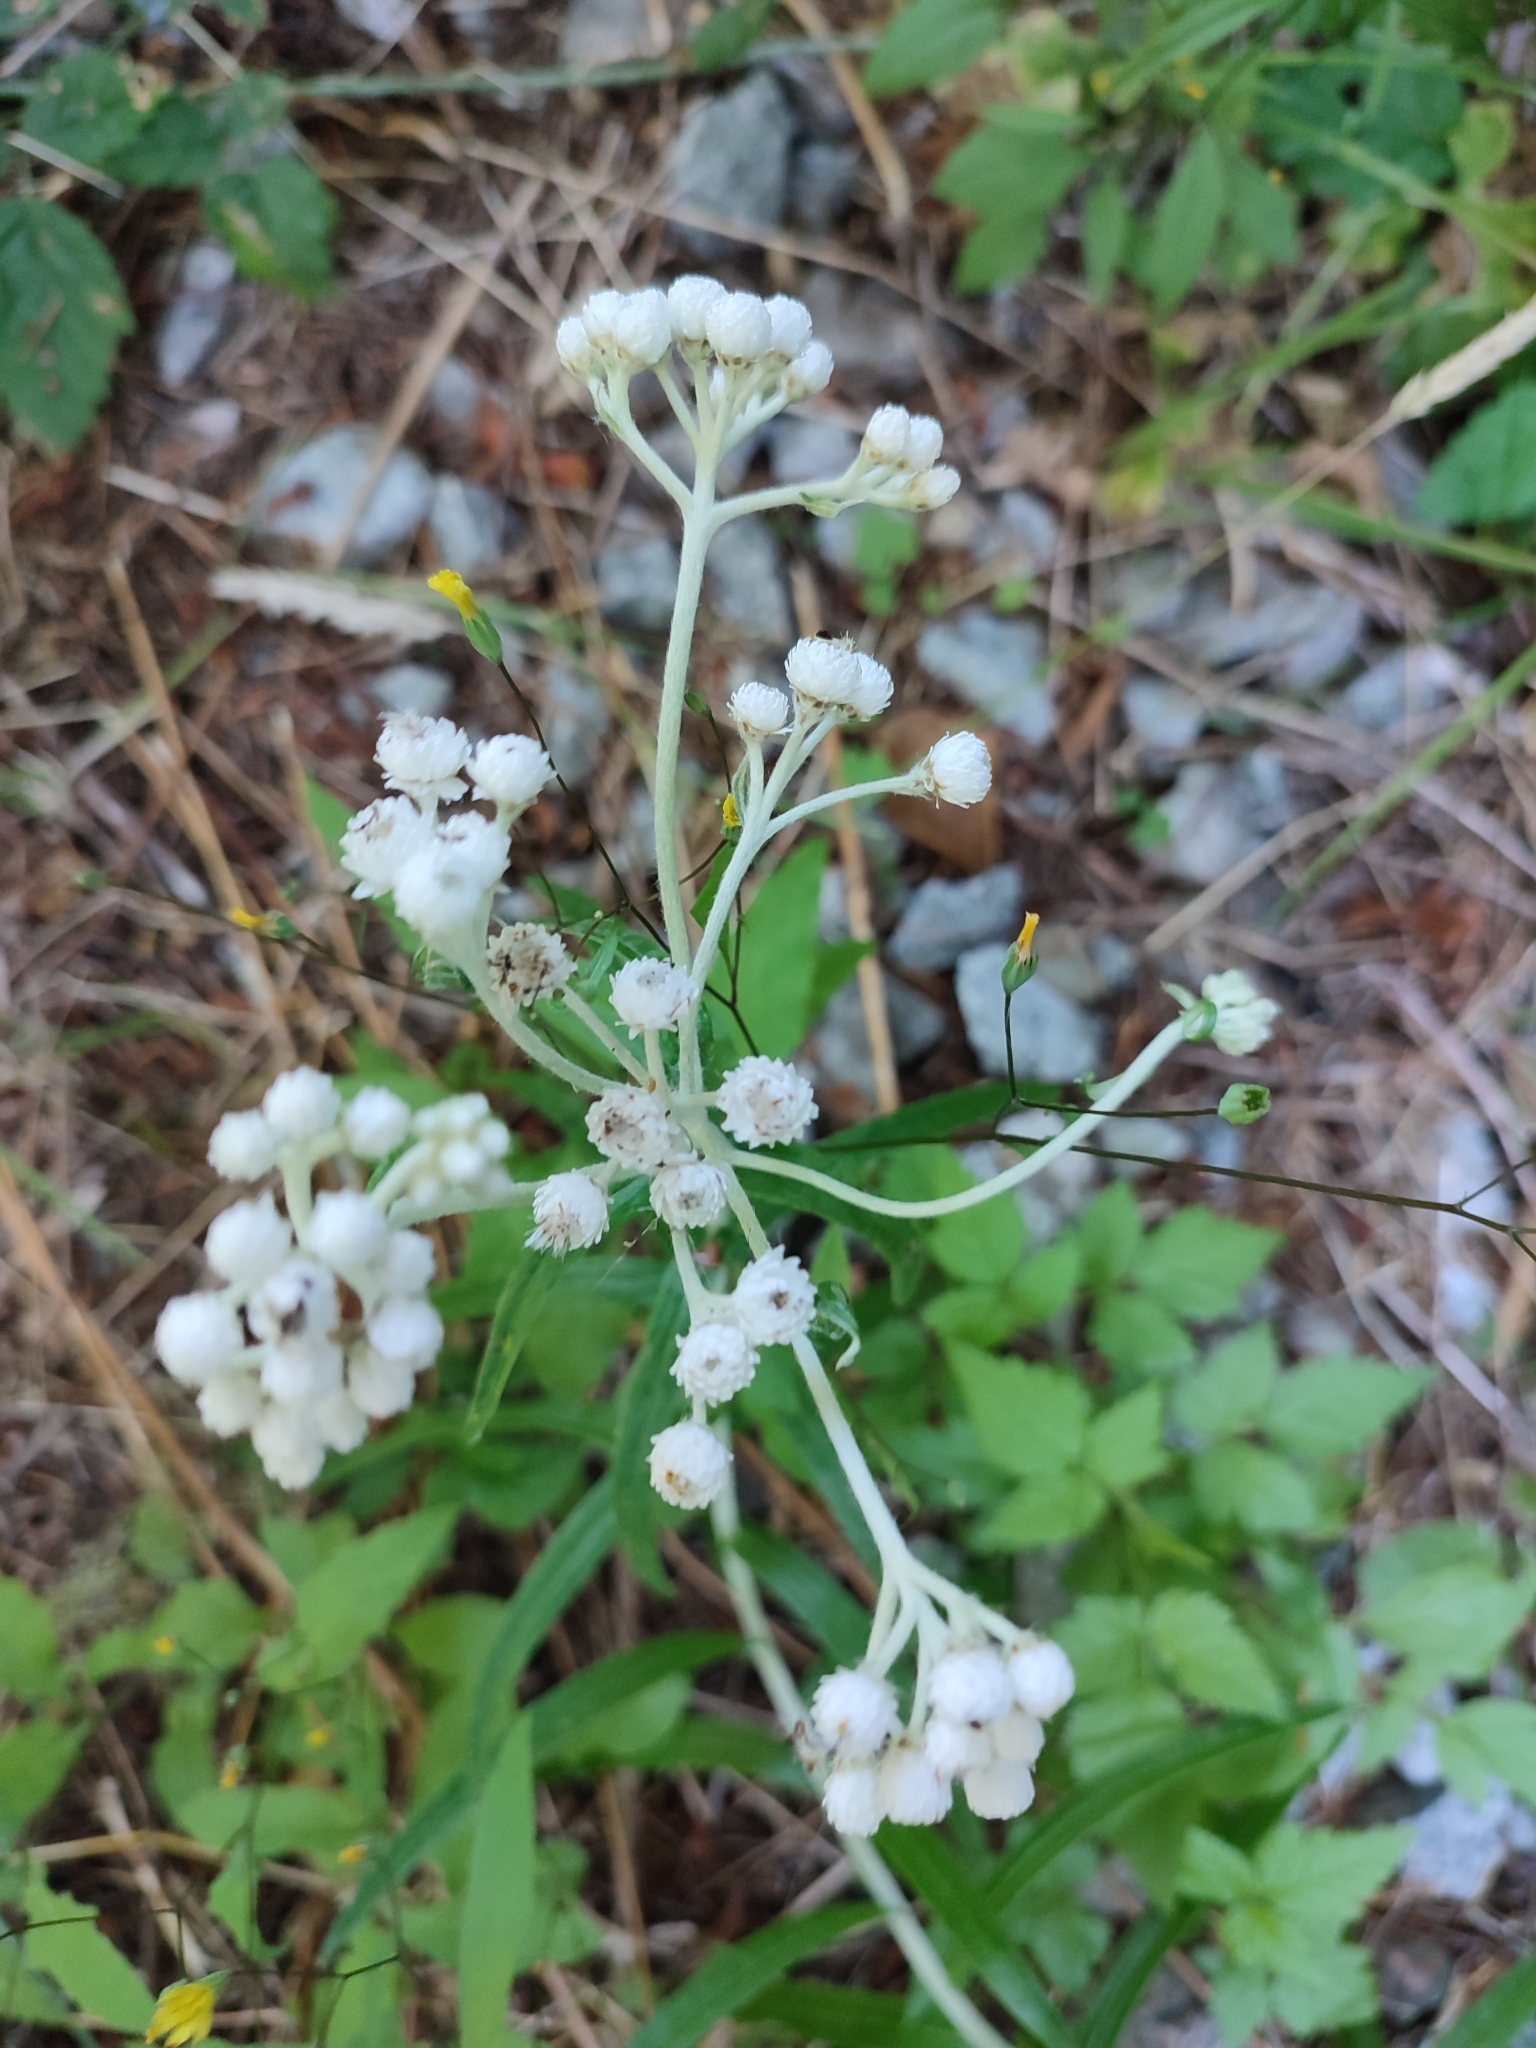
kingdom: Plantae
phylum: Tracheophyta
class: Magnoliopsida
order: Asterales
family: Asteraceae
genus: Anaphalis
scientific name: Anaphalis margaritacea
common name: Pearly everlasting
